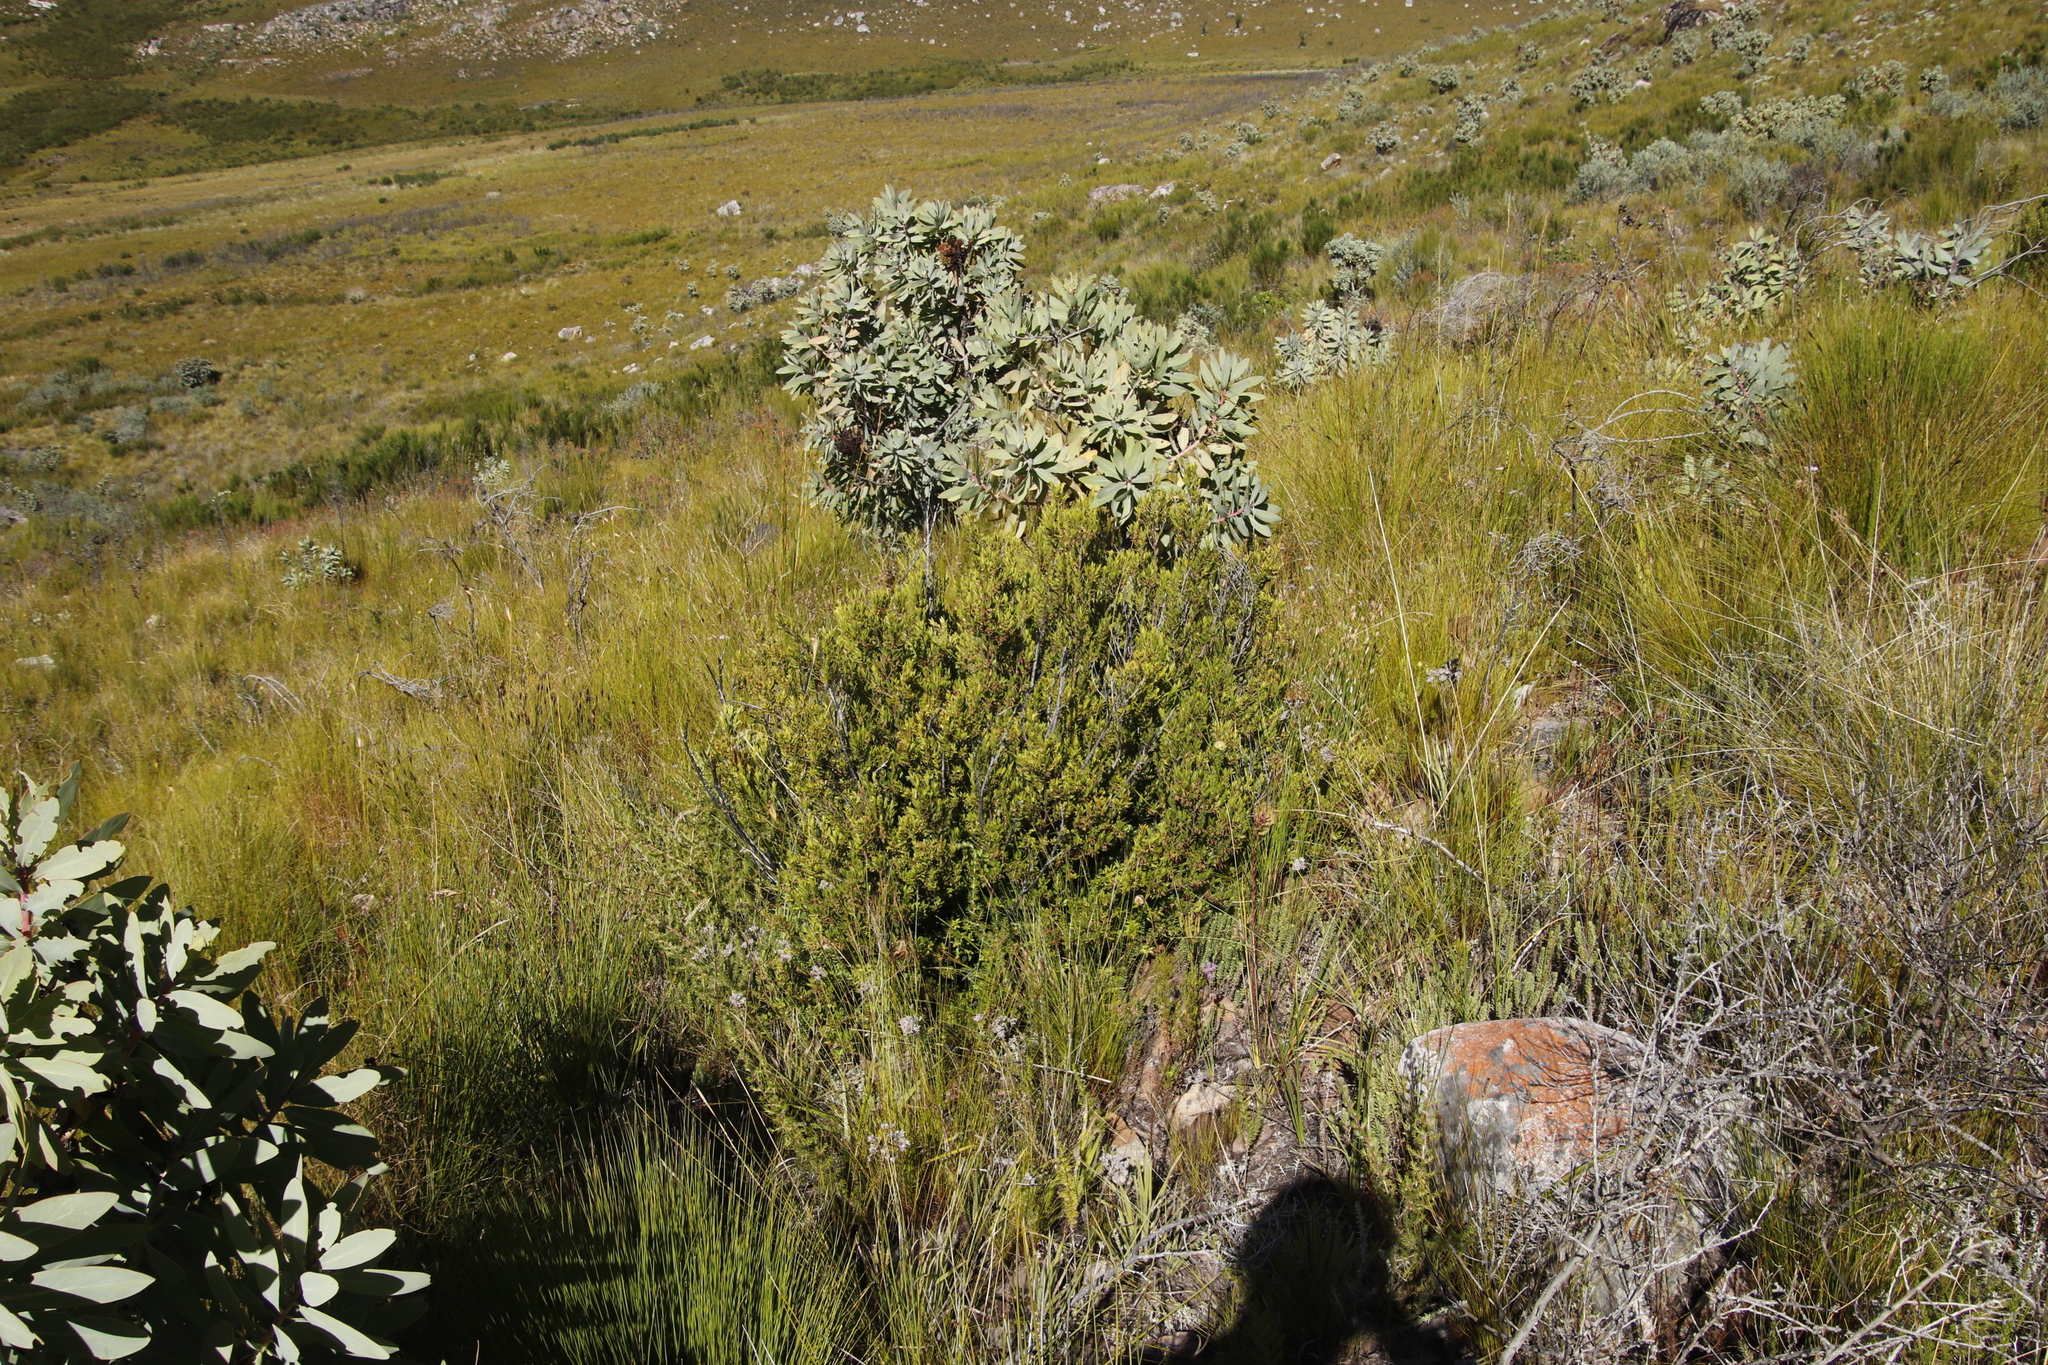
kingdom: Plantae
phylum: Tracheophyta
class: Magnoliopsida
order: Proteales
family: Proteaceae
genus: Protea
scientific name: Protea nitida
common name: Tree protea
